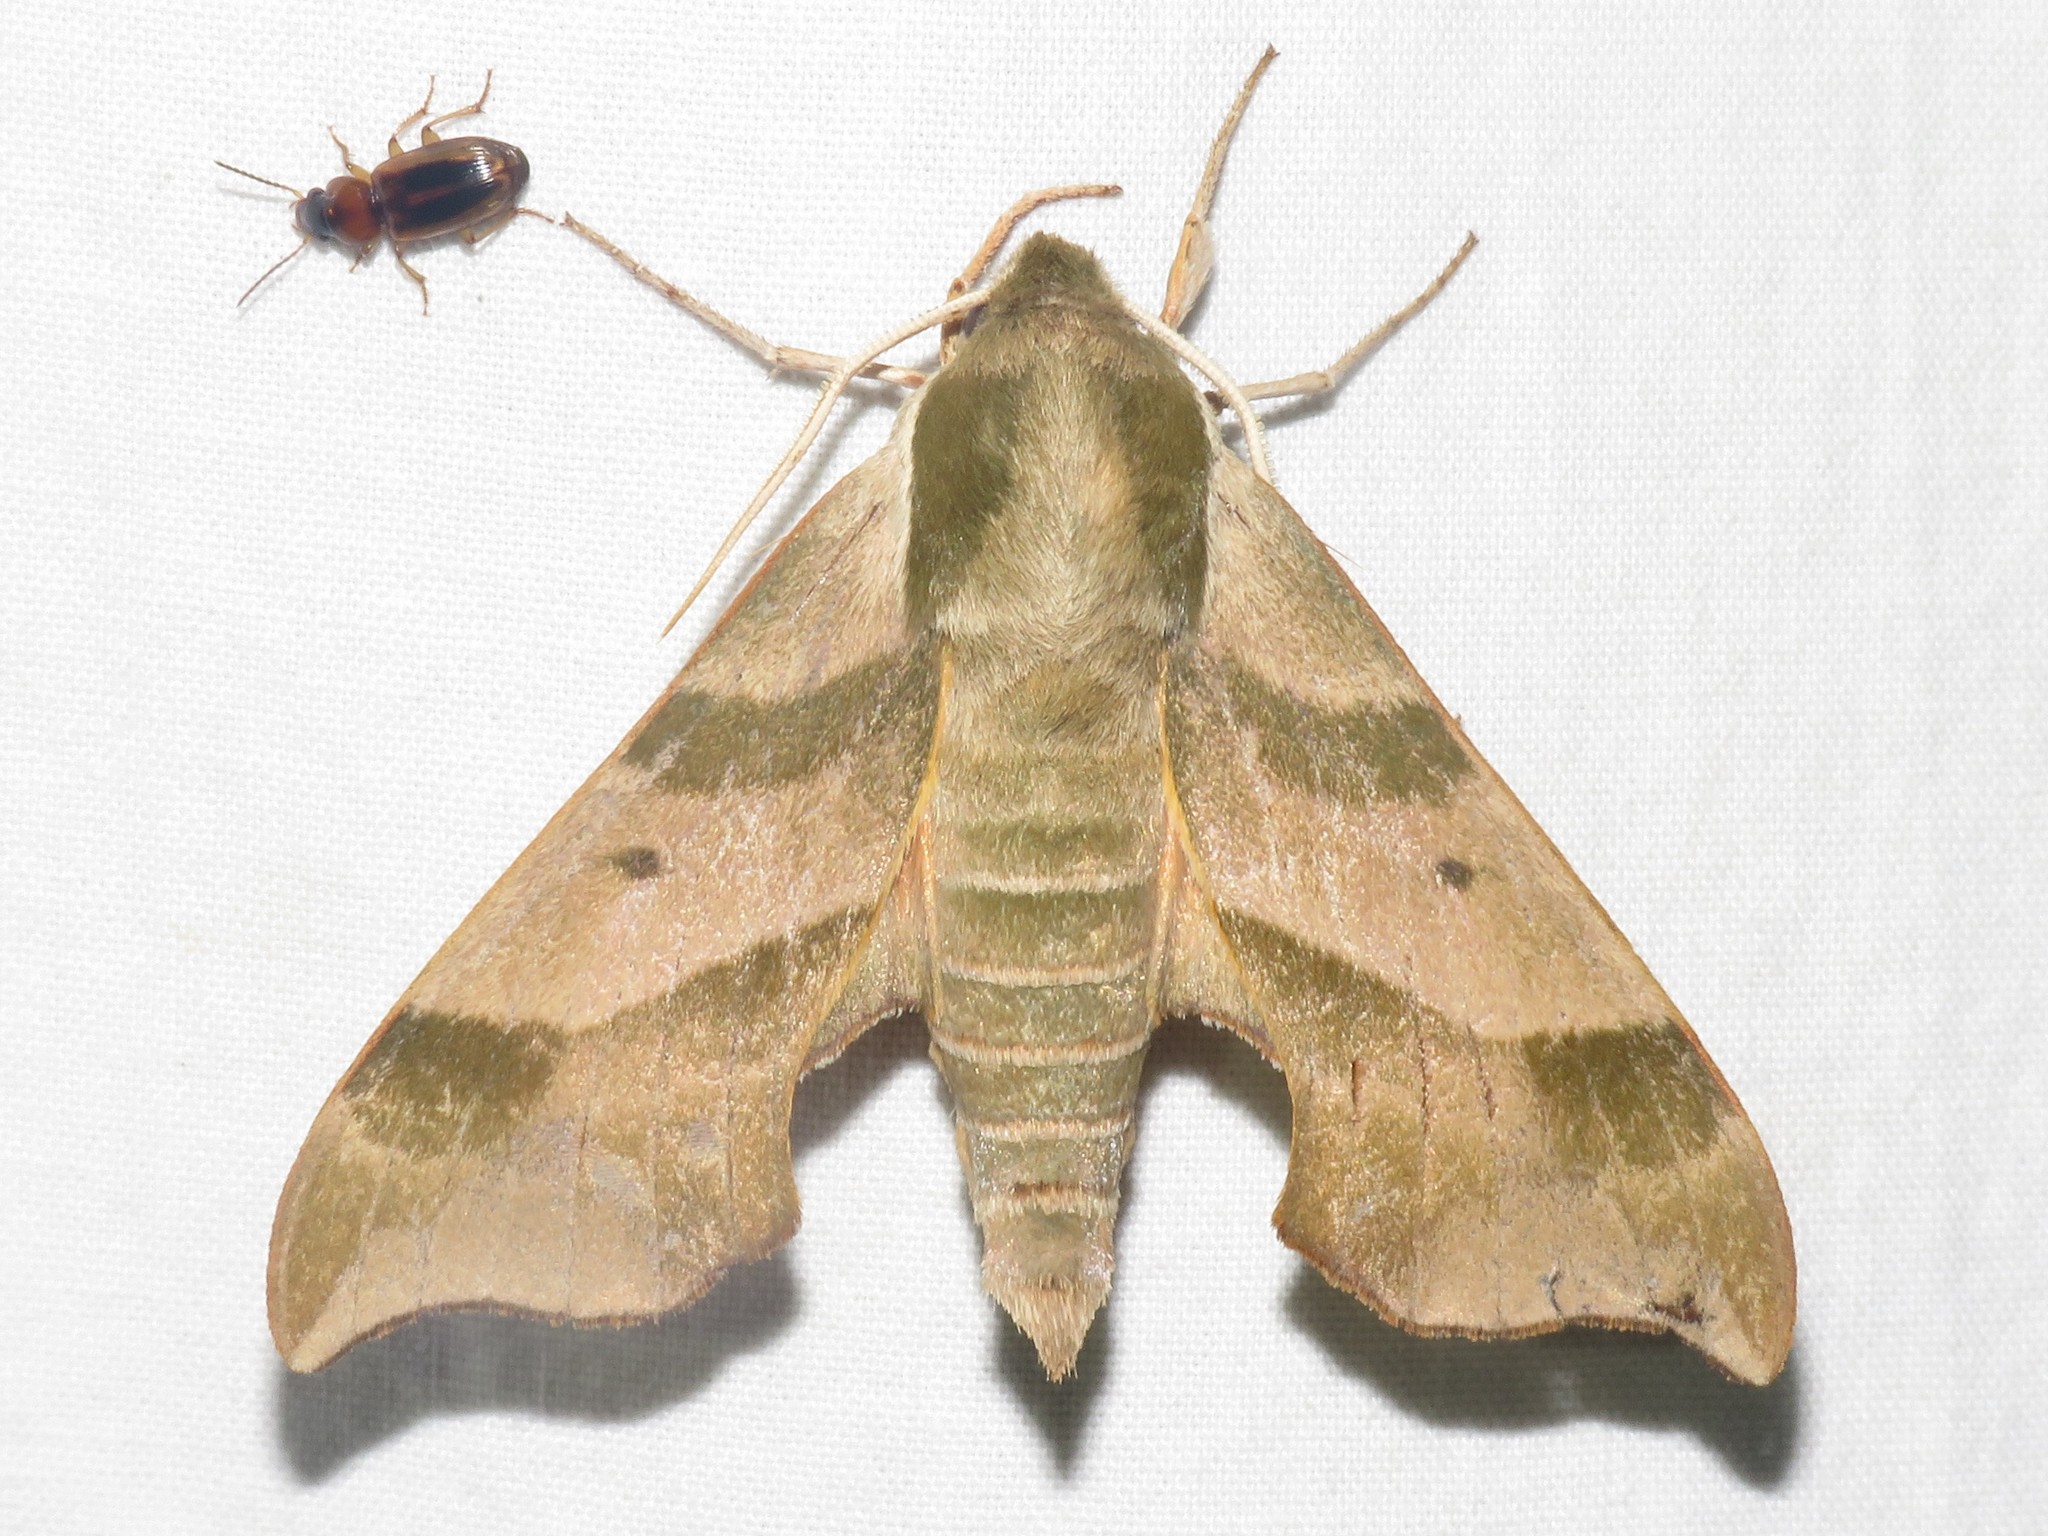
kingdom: Animalia
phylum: Arthropoda
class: Insecta
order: Lepidoptera
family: Sphingidae
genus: Darapsa
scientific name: Darapsa myron
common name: Hog sphinx
